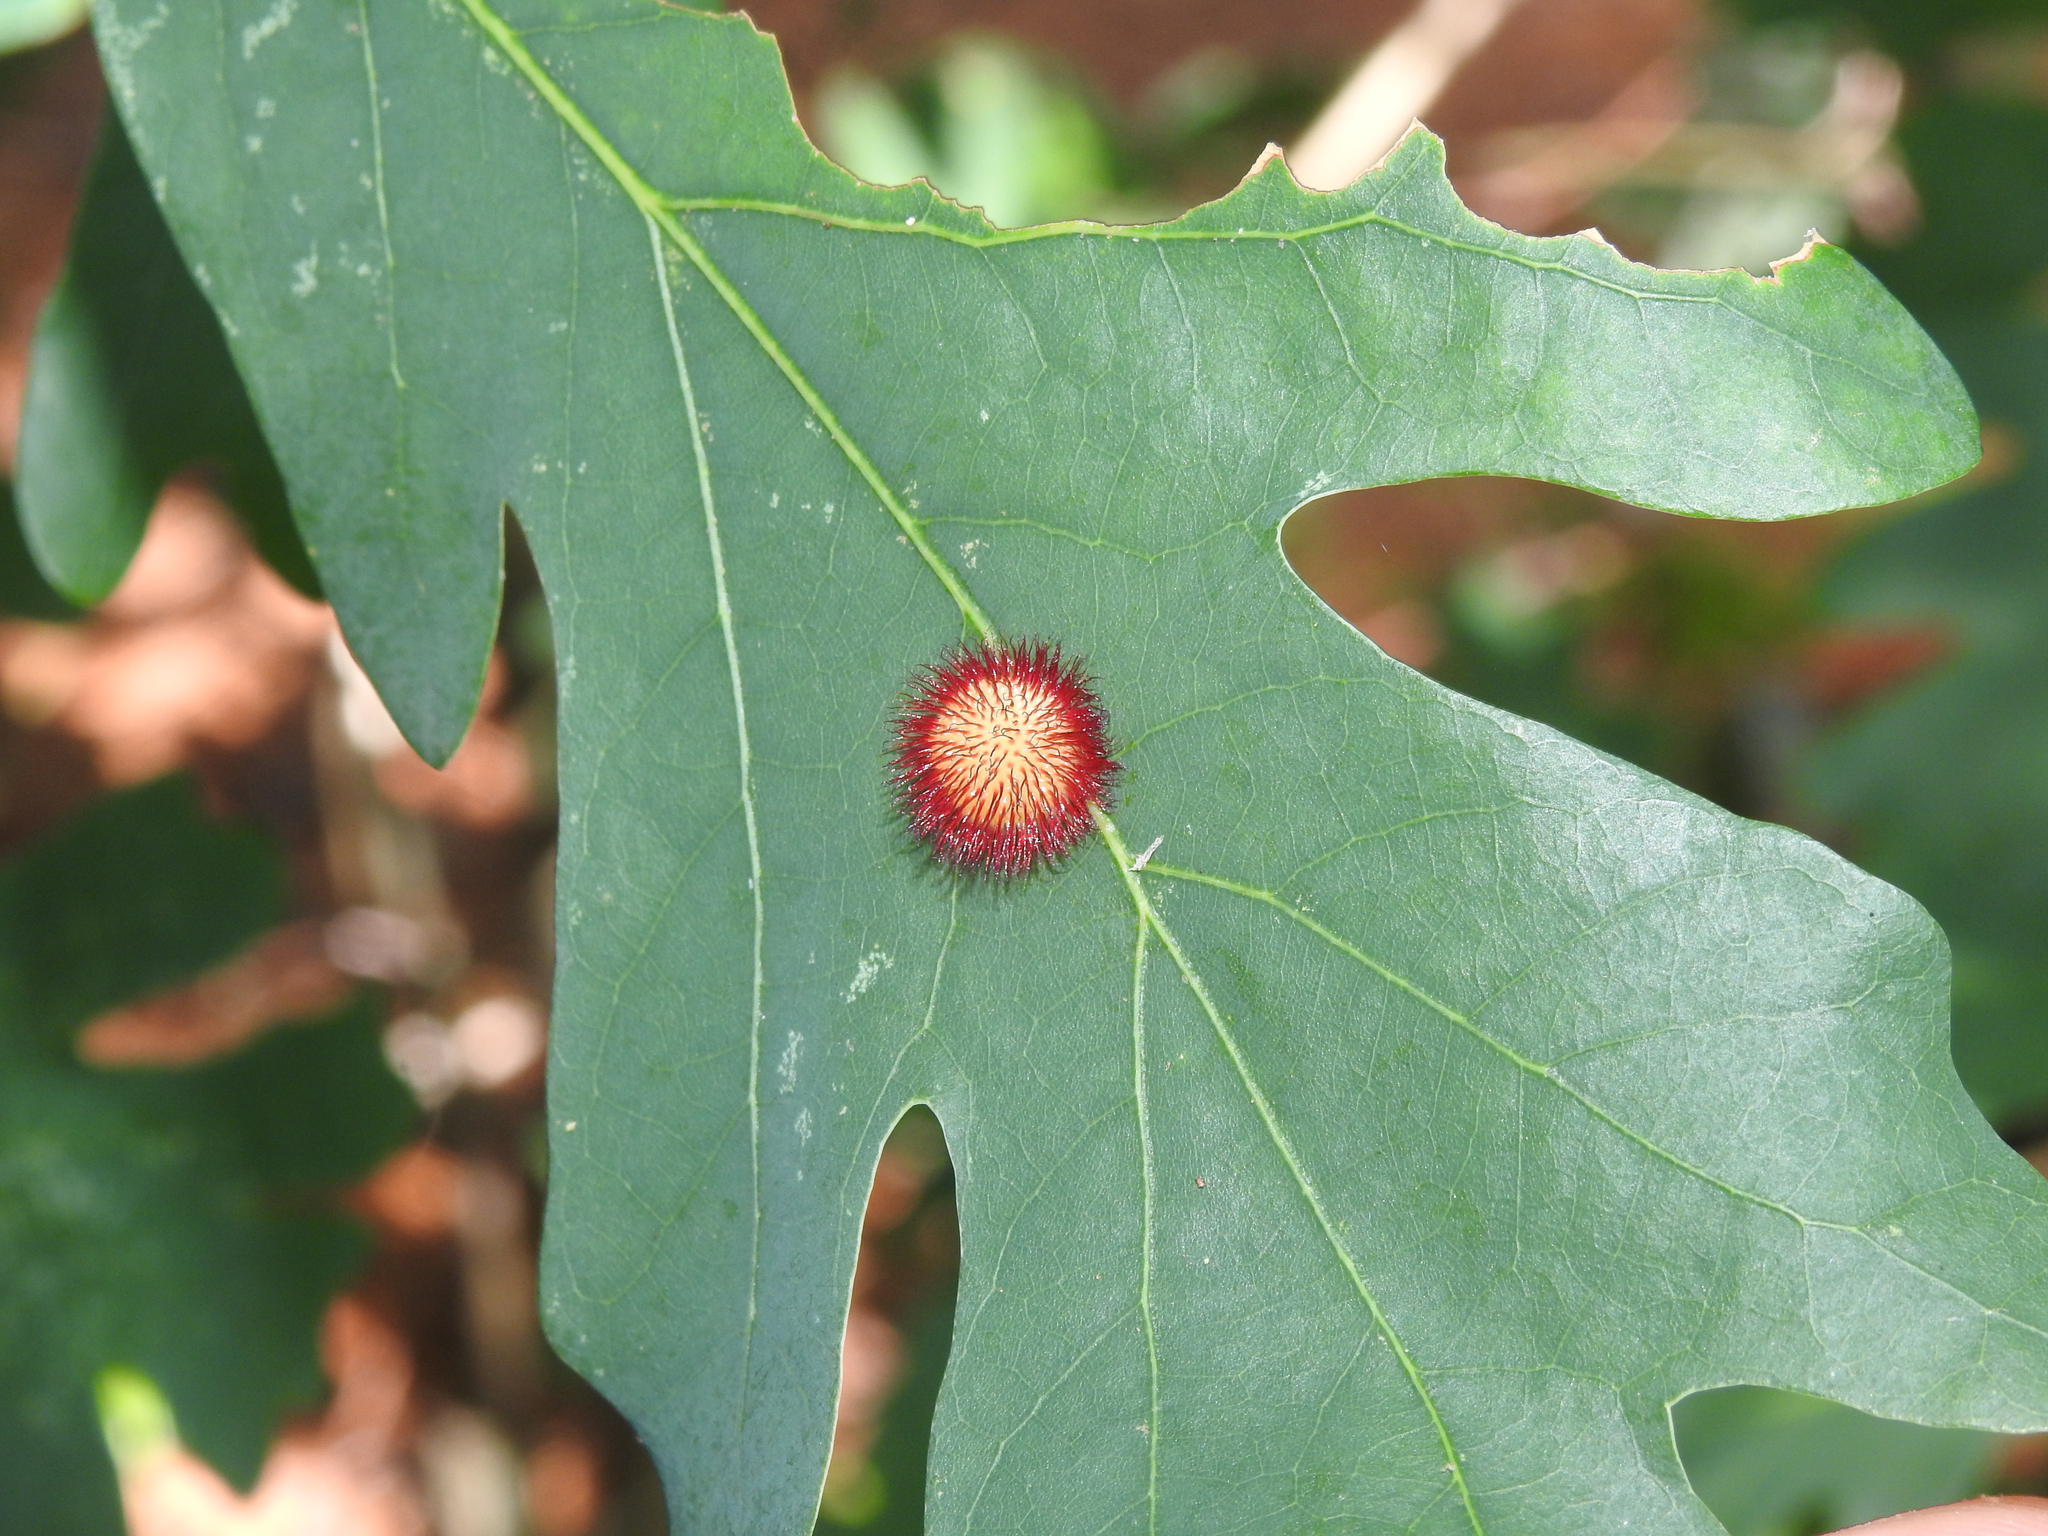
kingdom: Animalia
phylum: Arthropoda
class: Insecta
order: Hymenoptera
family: Cynipidae
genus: Acraspis
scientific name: Acraspis erinacei
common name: Hedgehog gall wasp
